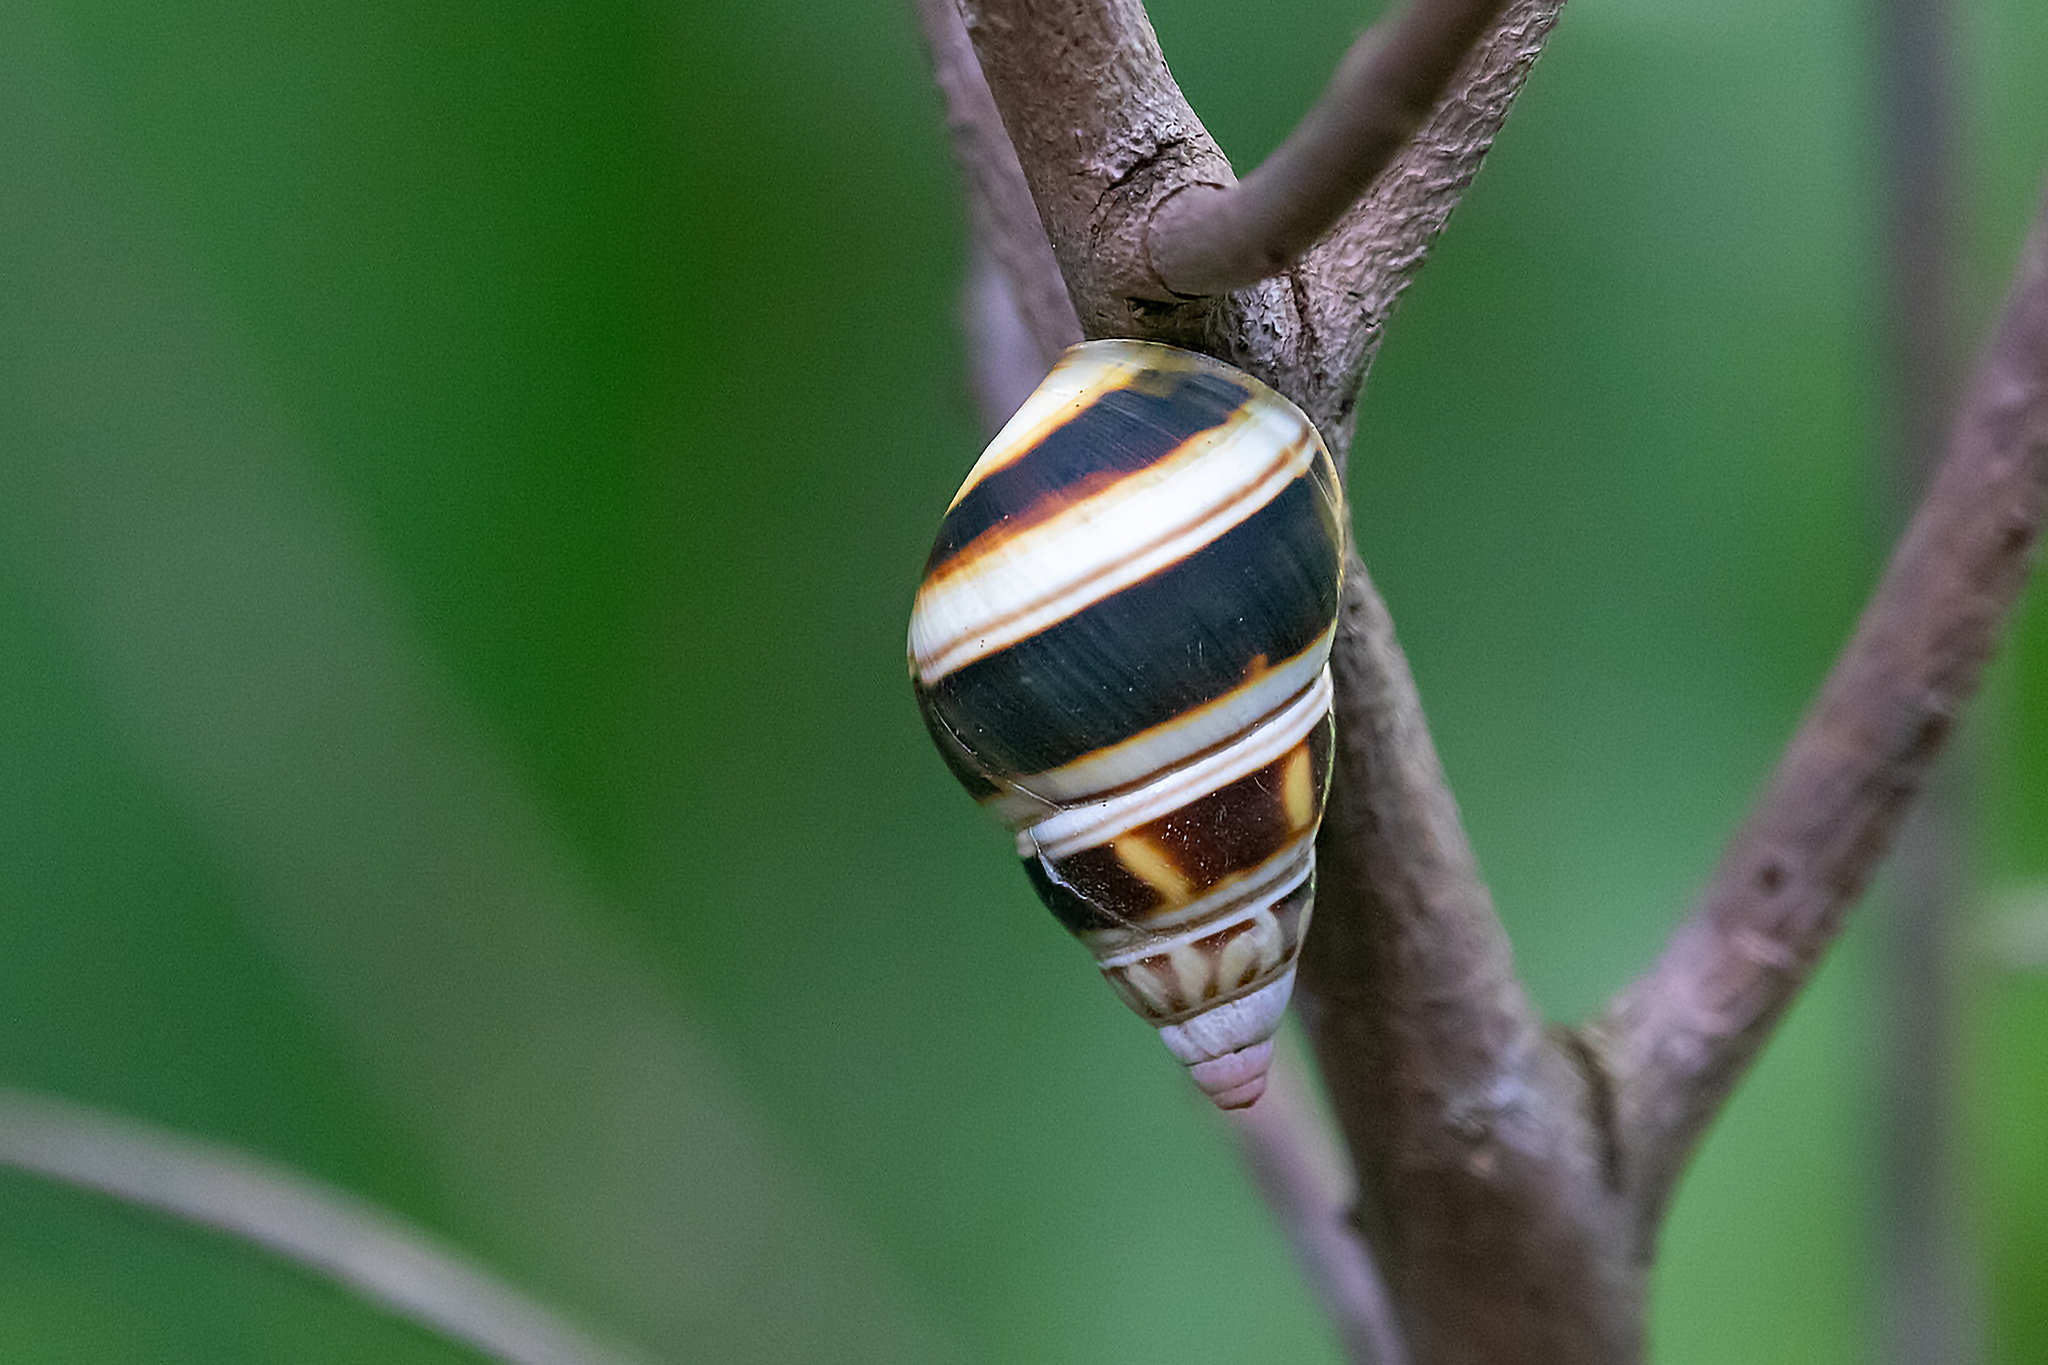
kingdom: Animalia
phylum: Mollusca
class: Gastropoda
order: Stylommatophora
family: Orthalicidae
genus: Liguus
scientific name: Liguus fasciatus
